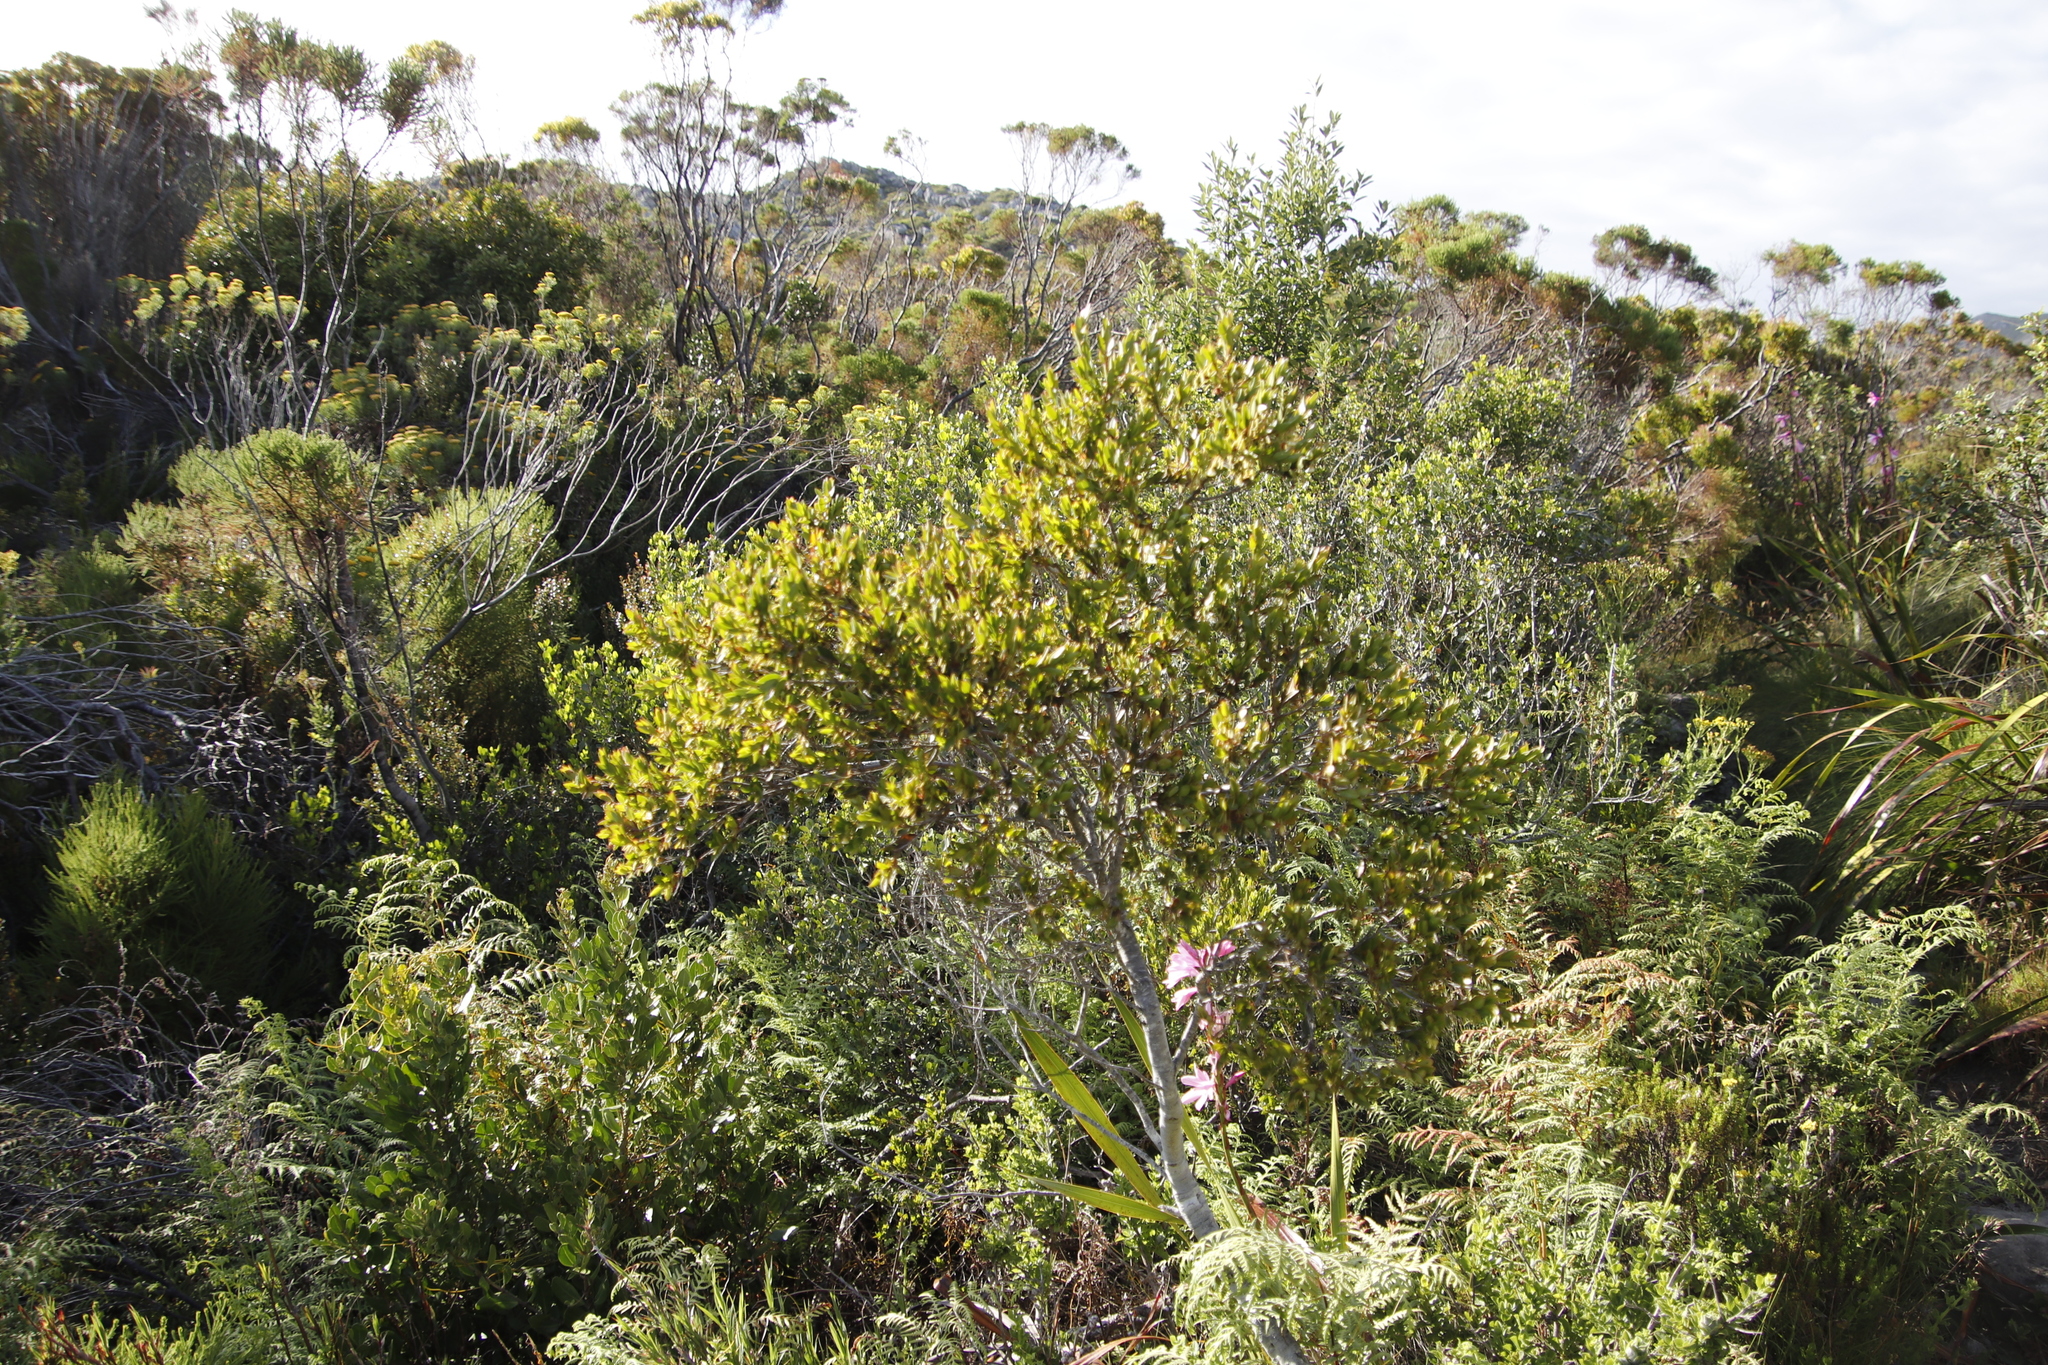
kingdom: Plantae
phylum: Tracheophyta
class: Magnoliopsida
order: Ericales
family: Ebenaceae
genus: Diospyros
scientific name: Diospyros glabra
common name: Fynbos star apple
